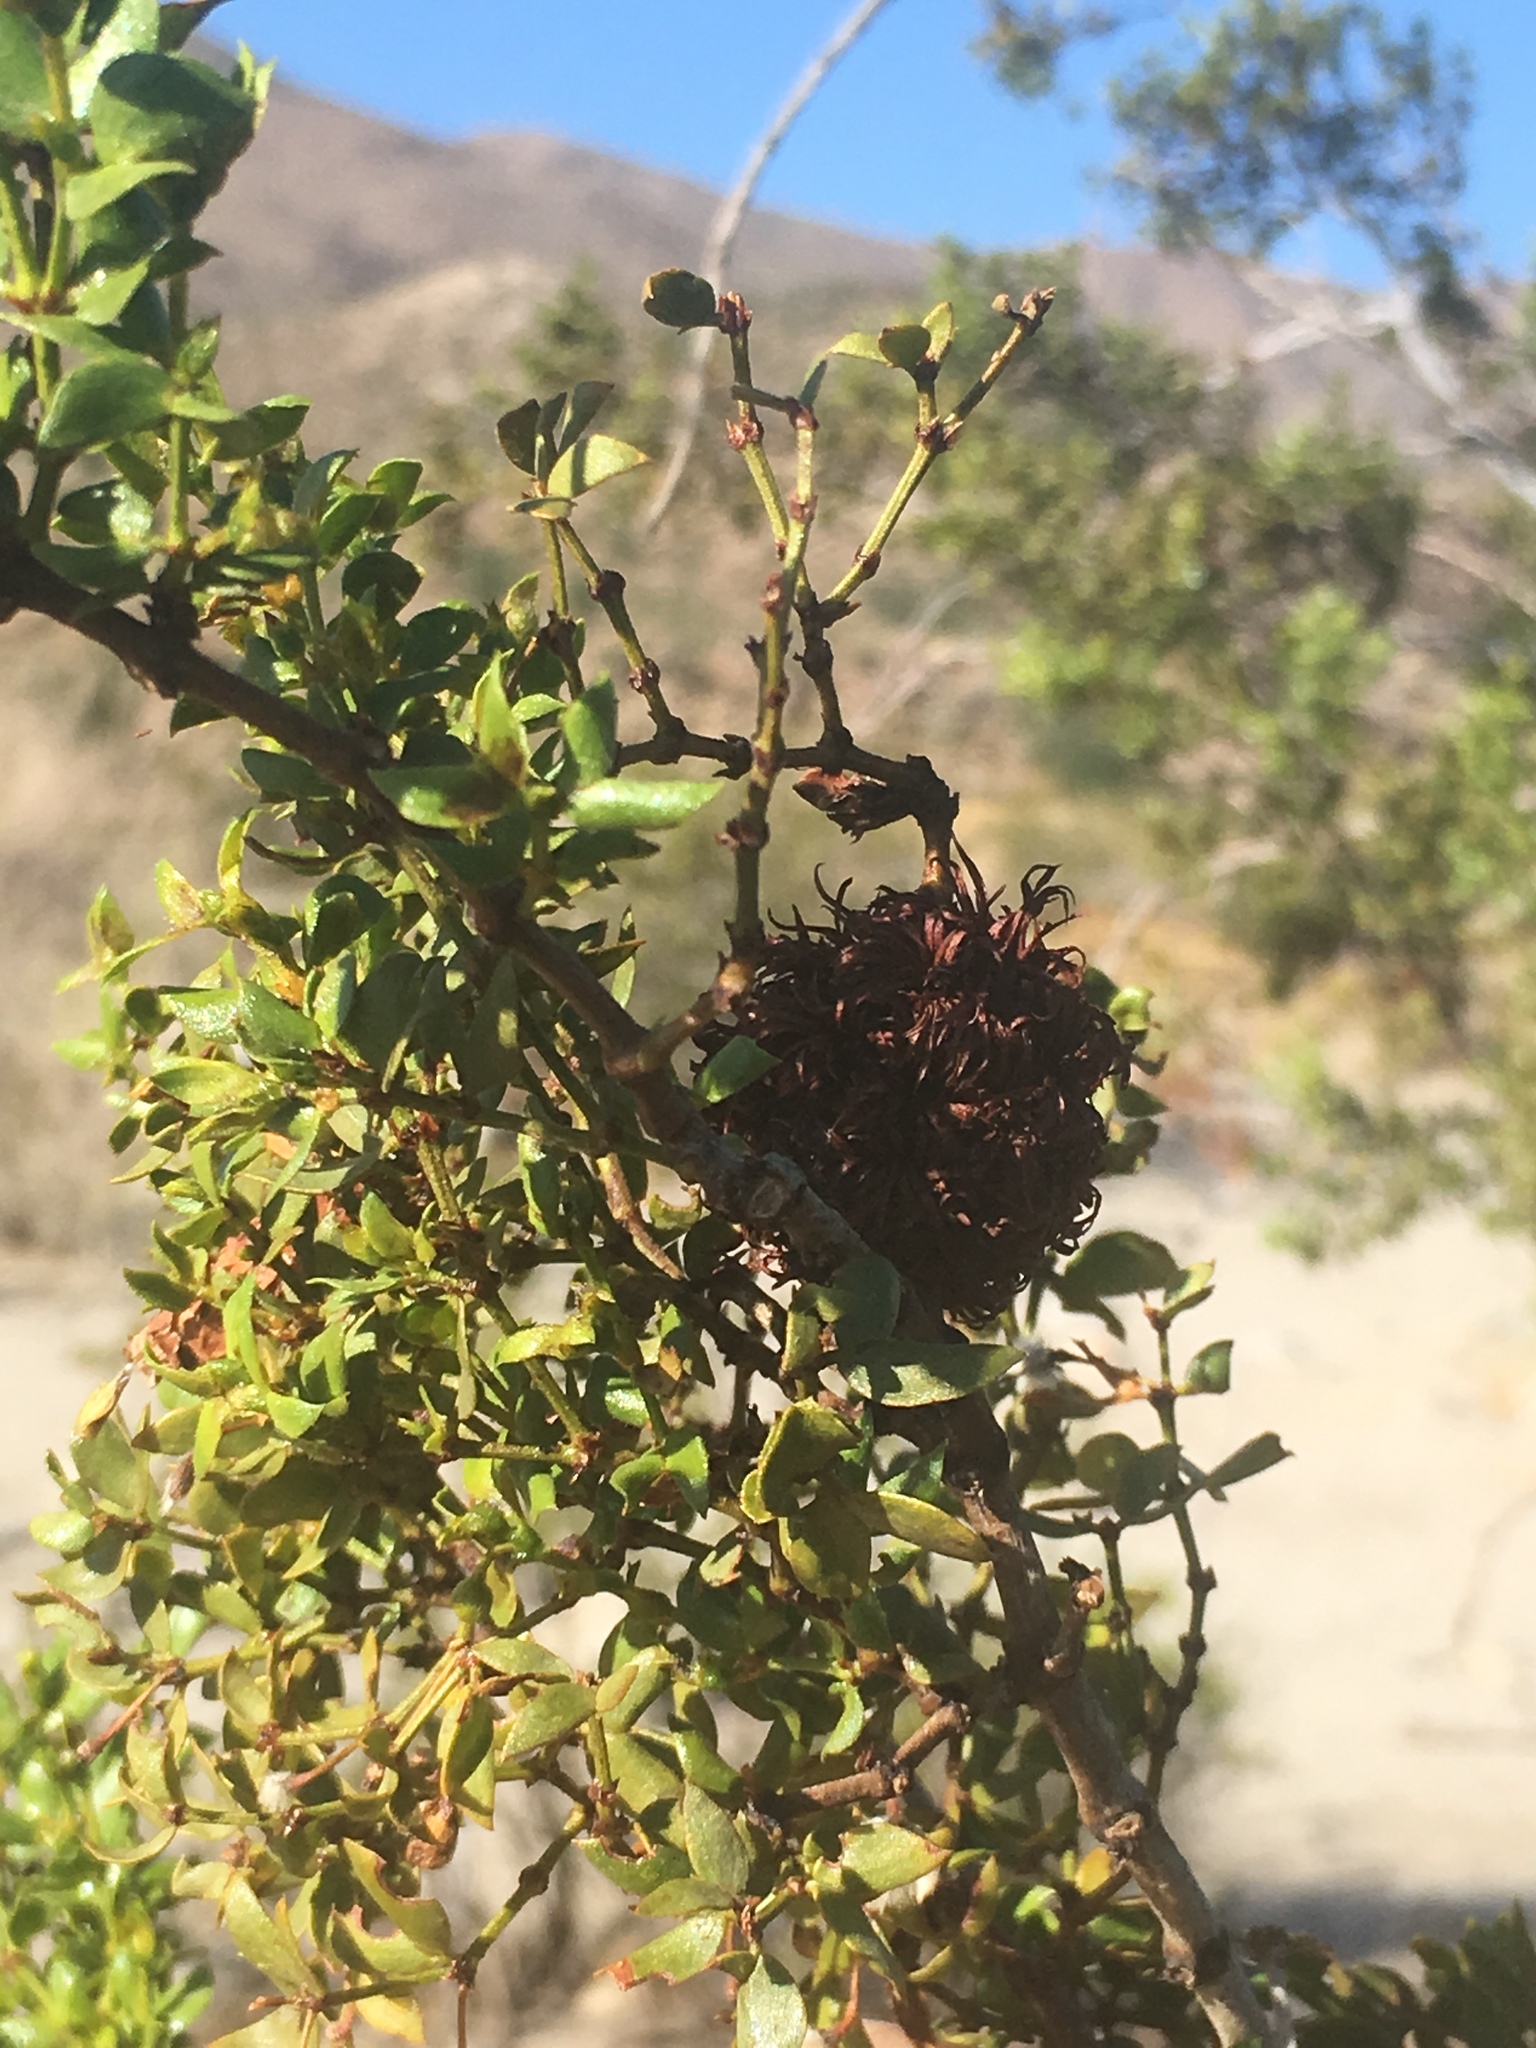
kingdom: Animalia
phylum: Arthropoda
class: Insecta
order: Diptera
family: Cecidomyiidae
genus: Asphondylia
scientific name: Asphondylia auripila
